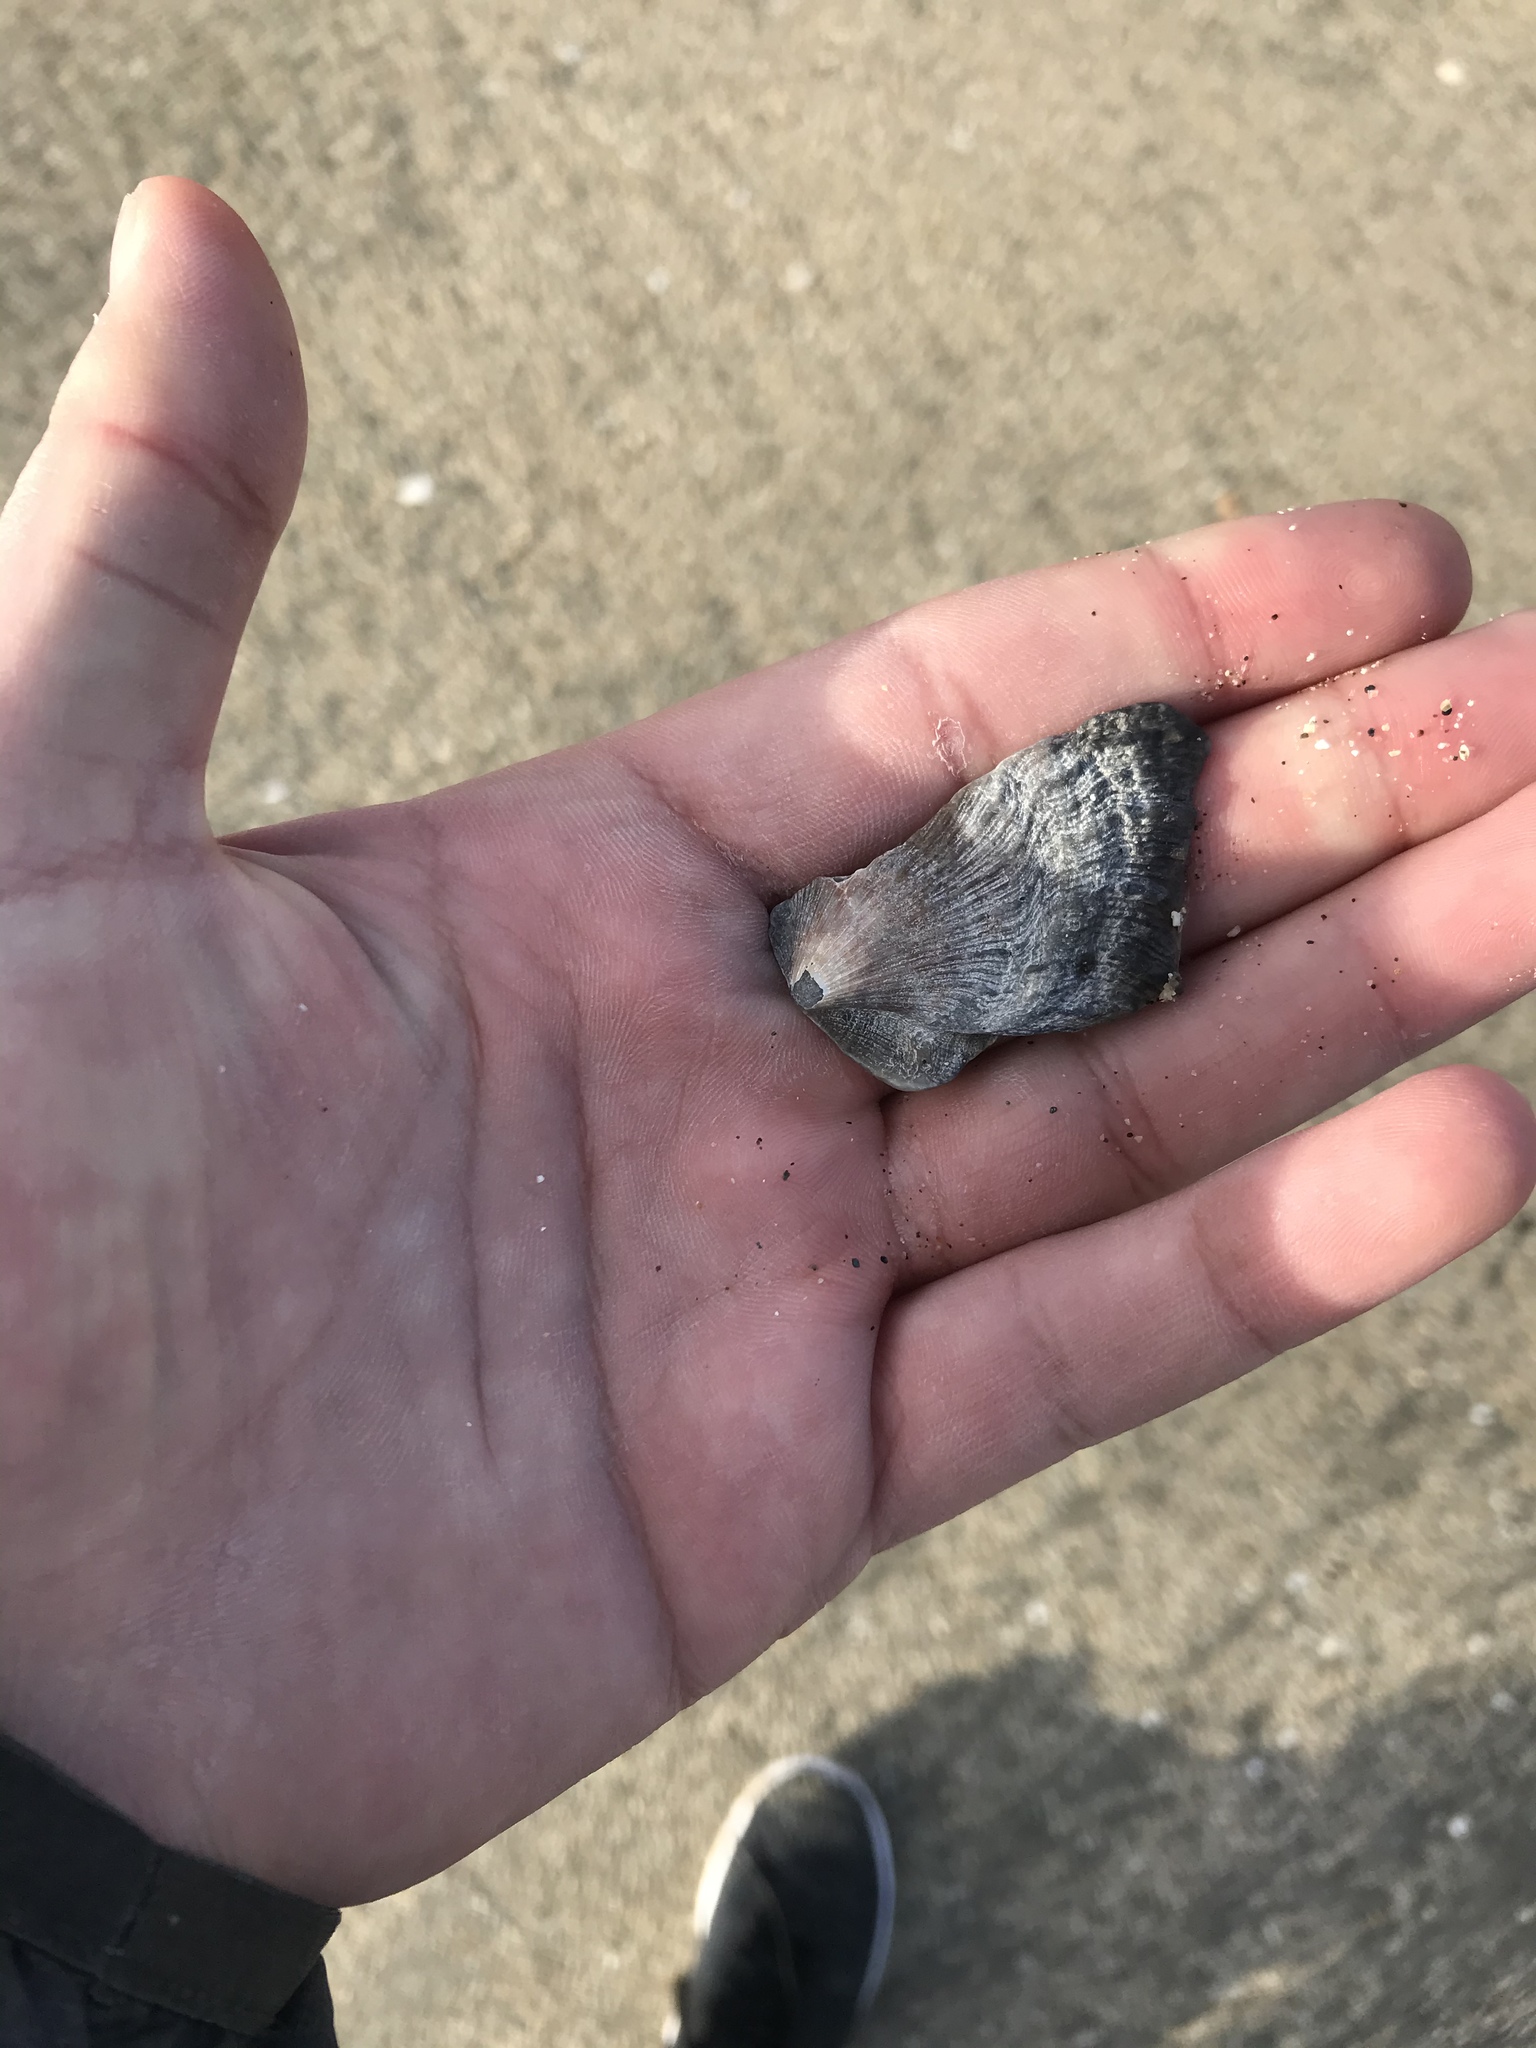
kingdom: Animalia
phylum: Mollusca
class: Bivalvia
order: Pectinida
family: Pectinidae
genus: Crassadoma
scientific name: Crassadoma gigantea
